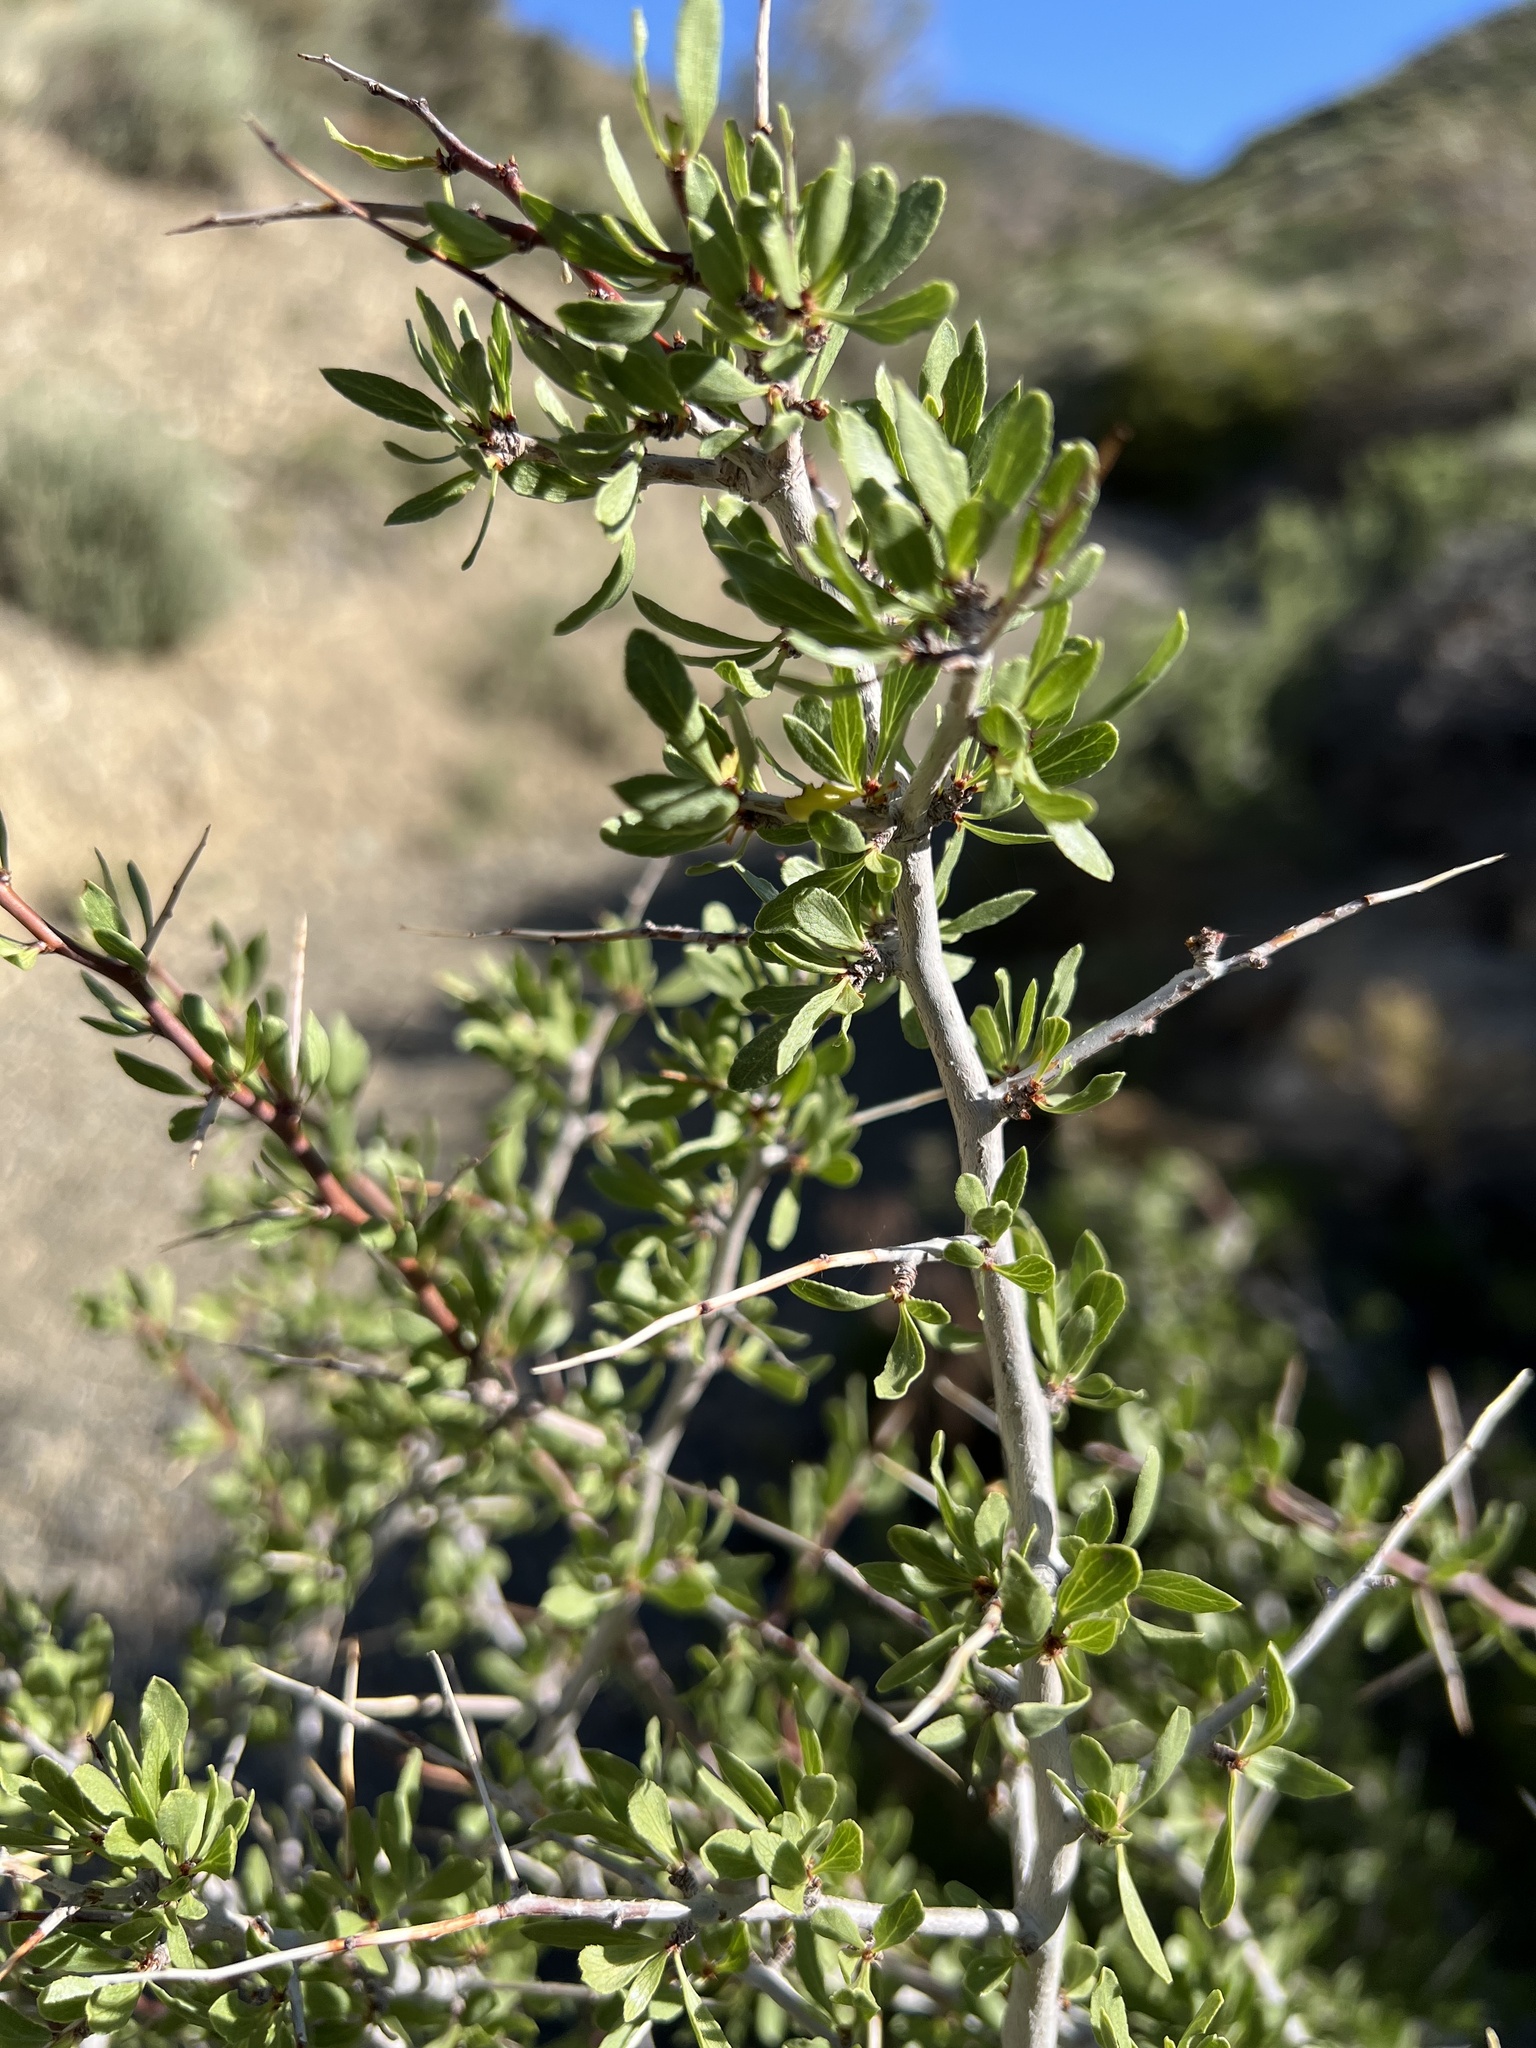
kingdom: Plantae
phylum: Tracheophyta
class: Magnoliopsida
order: Rosales
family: Rosaceae
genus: Prunus
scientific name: Prunus andersonii
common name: Desert peach
